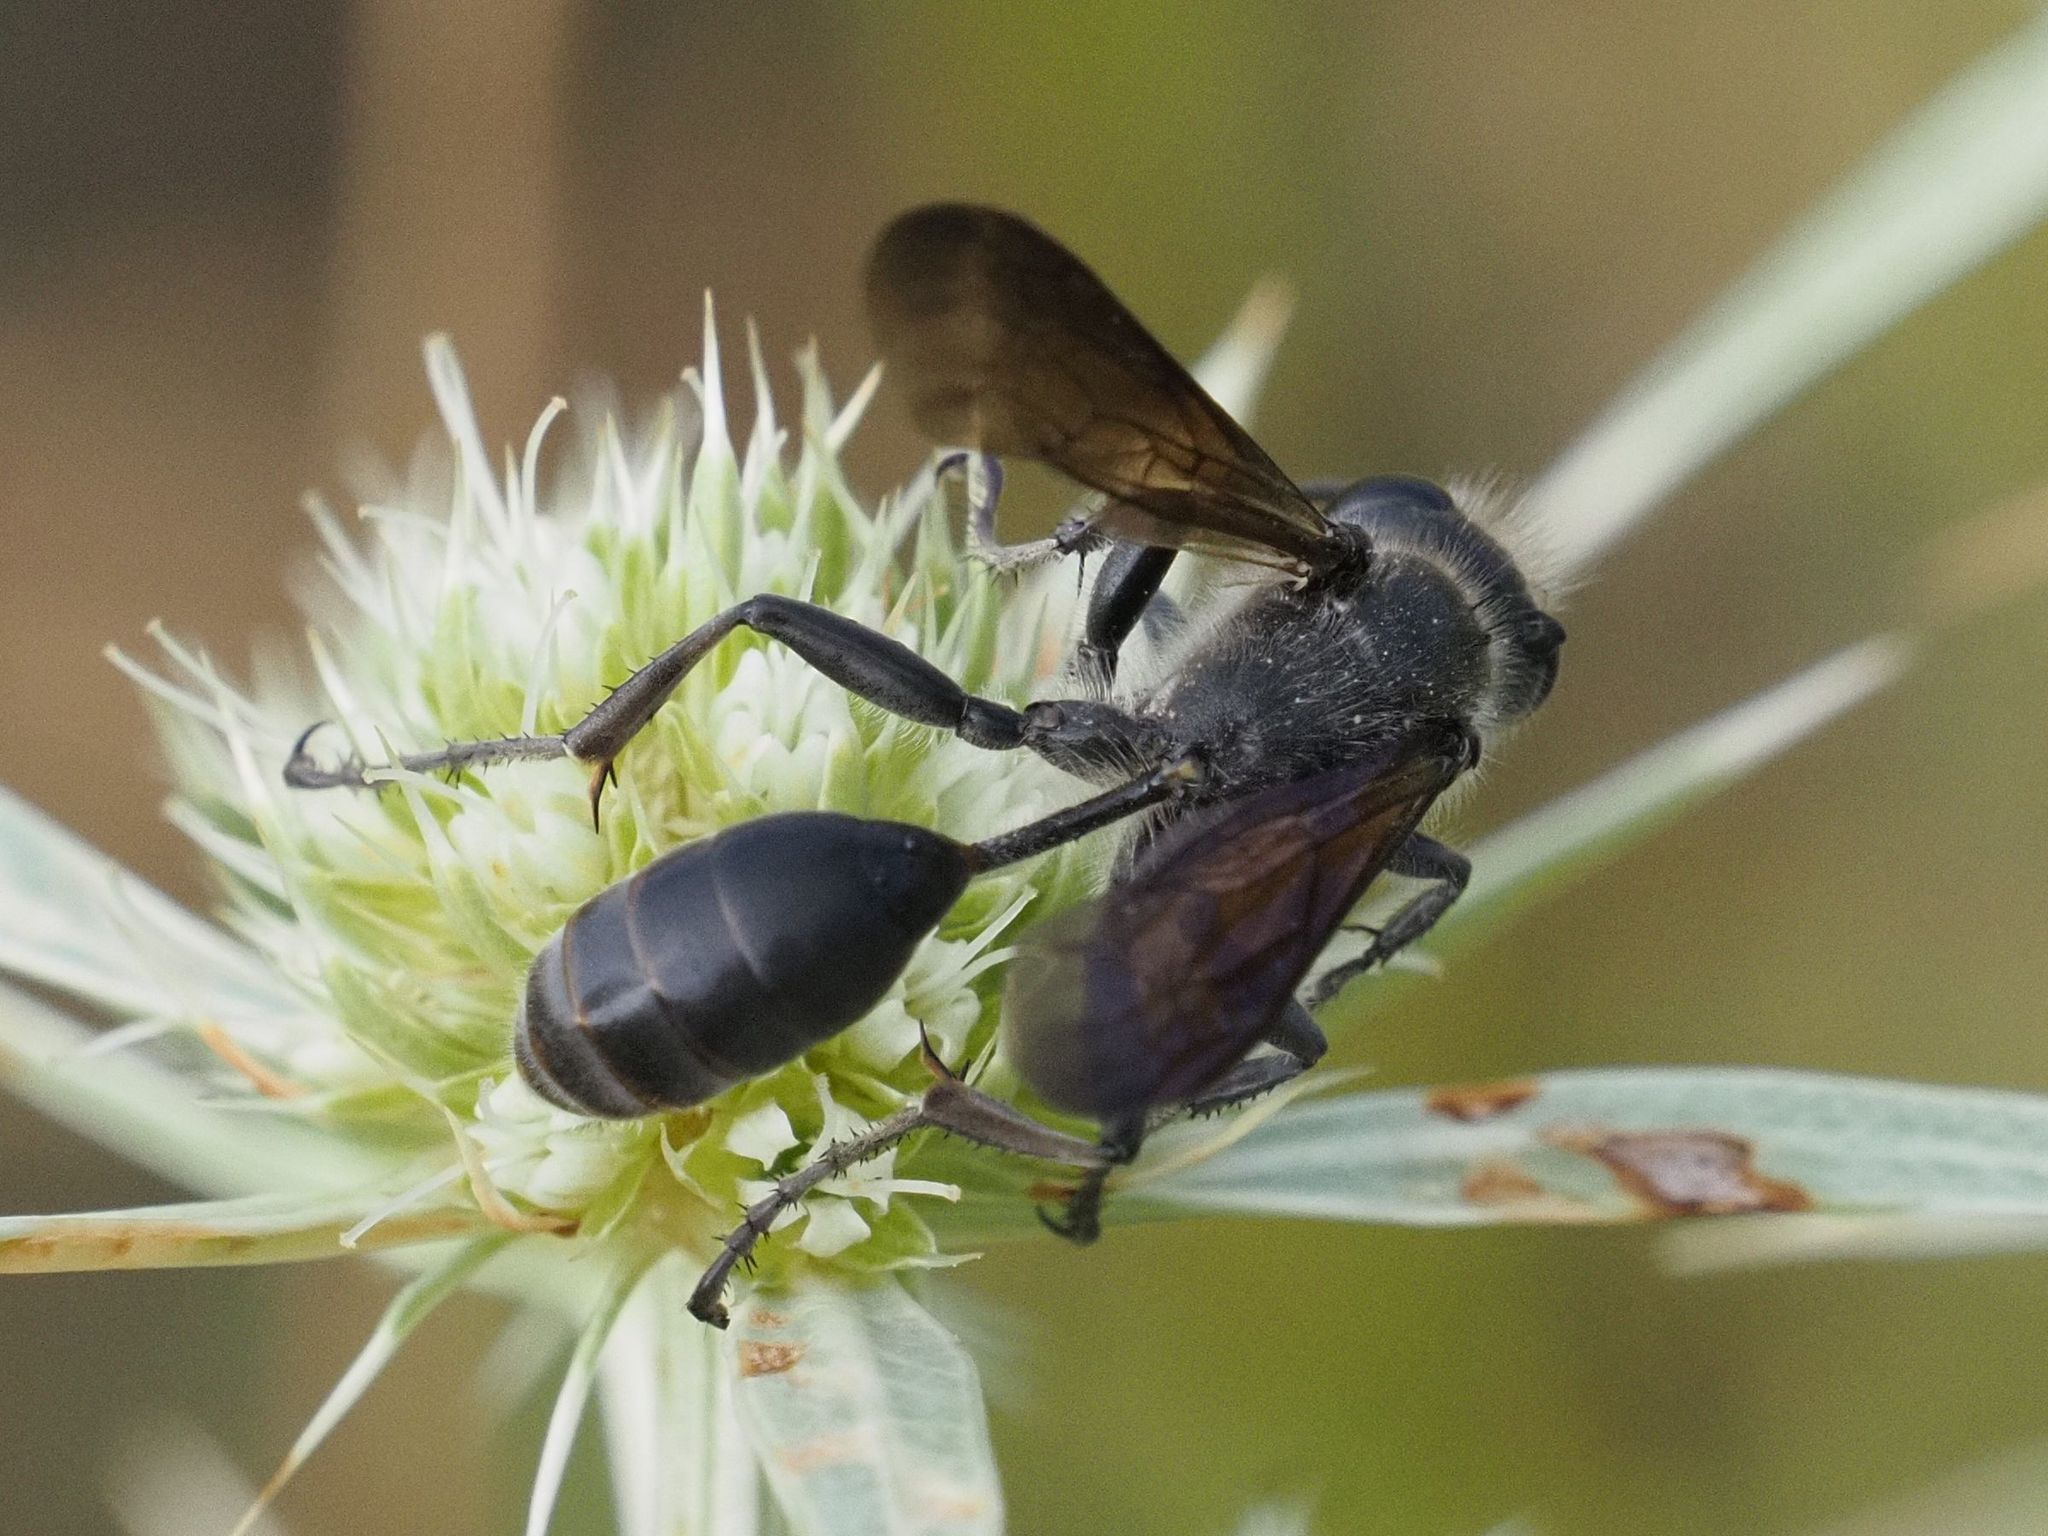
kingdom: Animalia
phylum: Arthropoda
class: Insecta
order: Hymenoptera
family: Sphecidae
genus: Isodontia
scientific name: Isodontia mexicana
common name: Mud dauber
